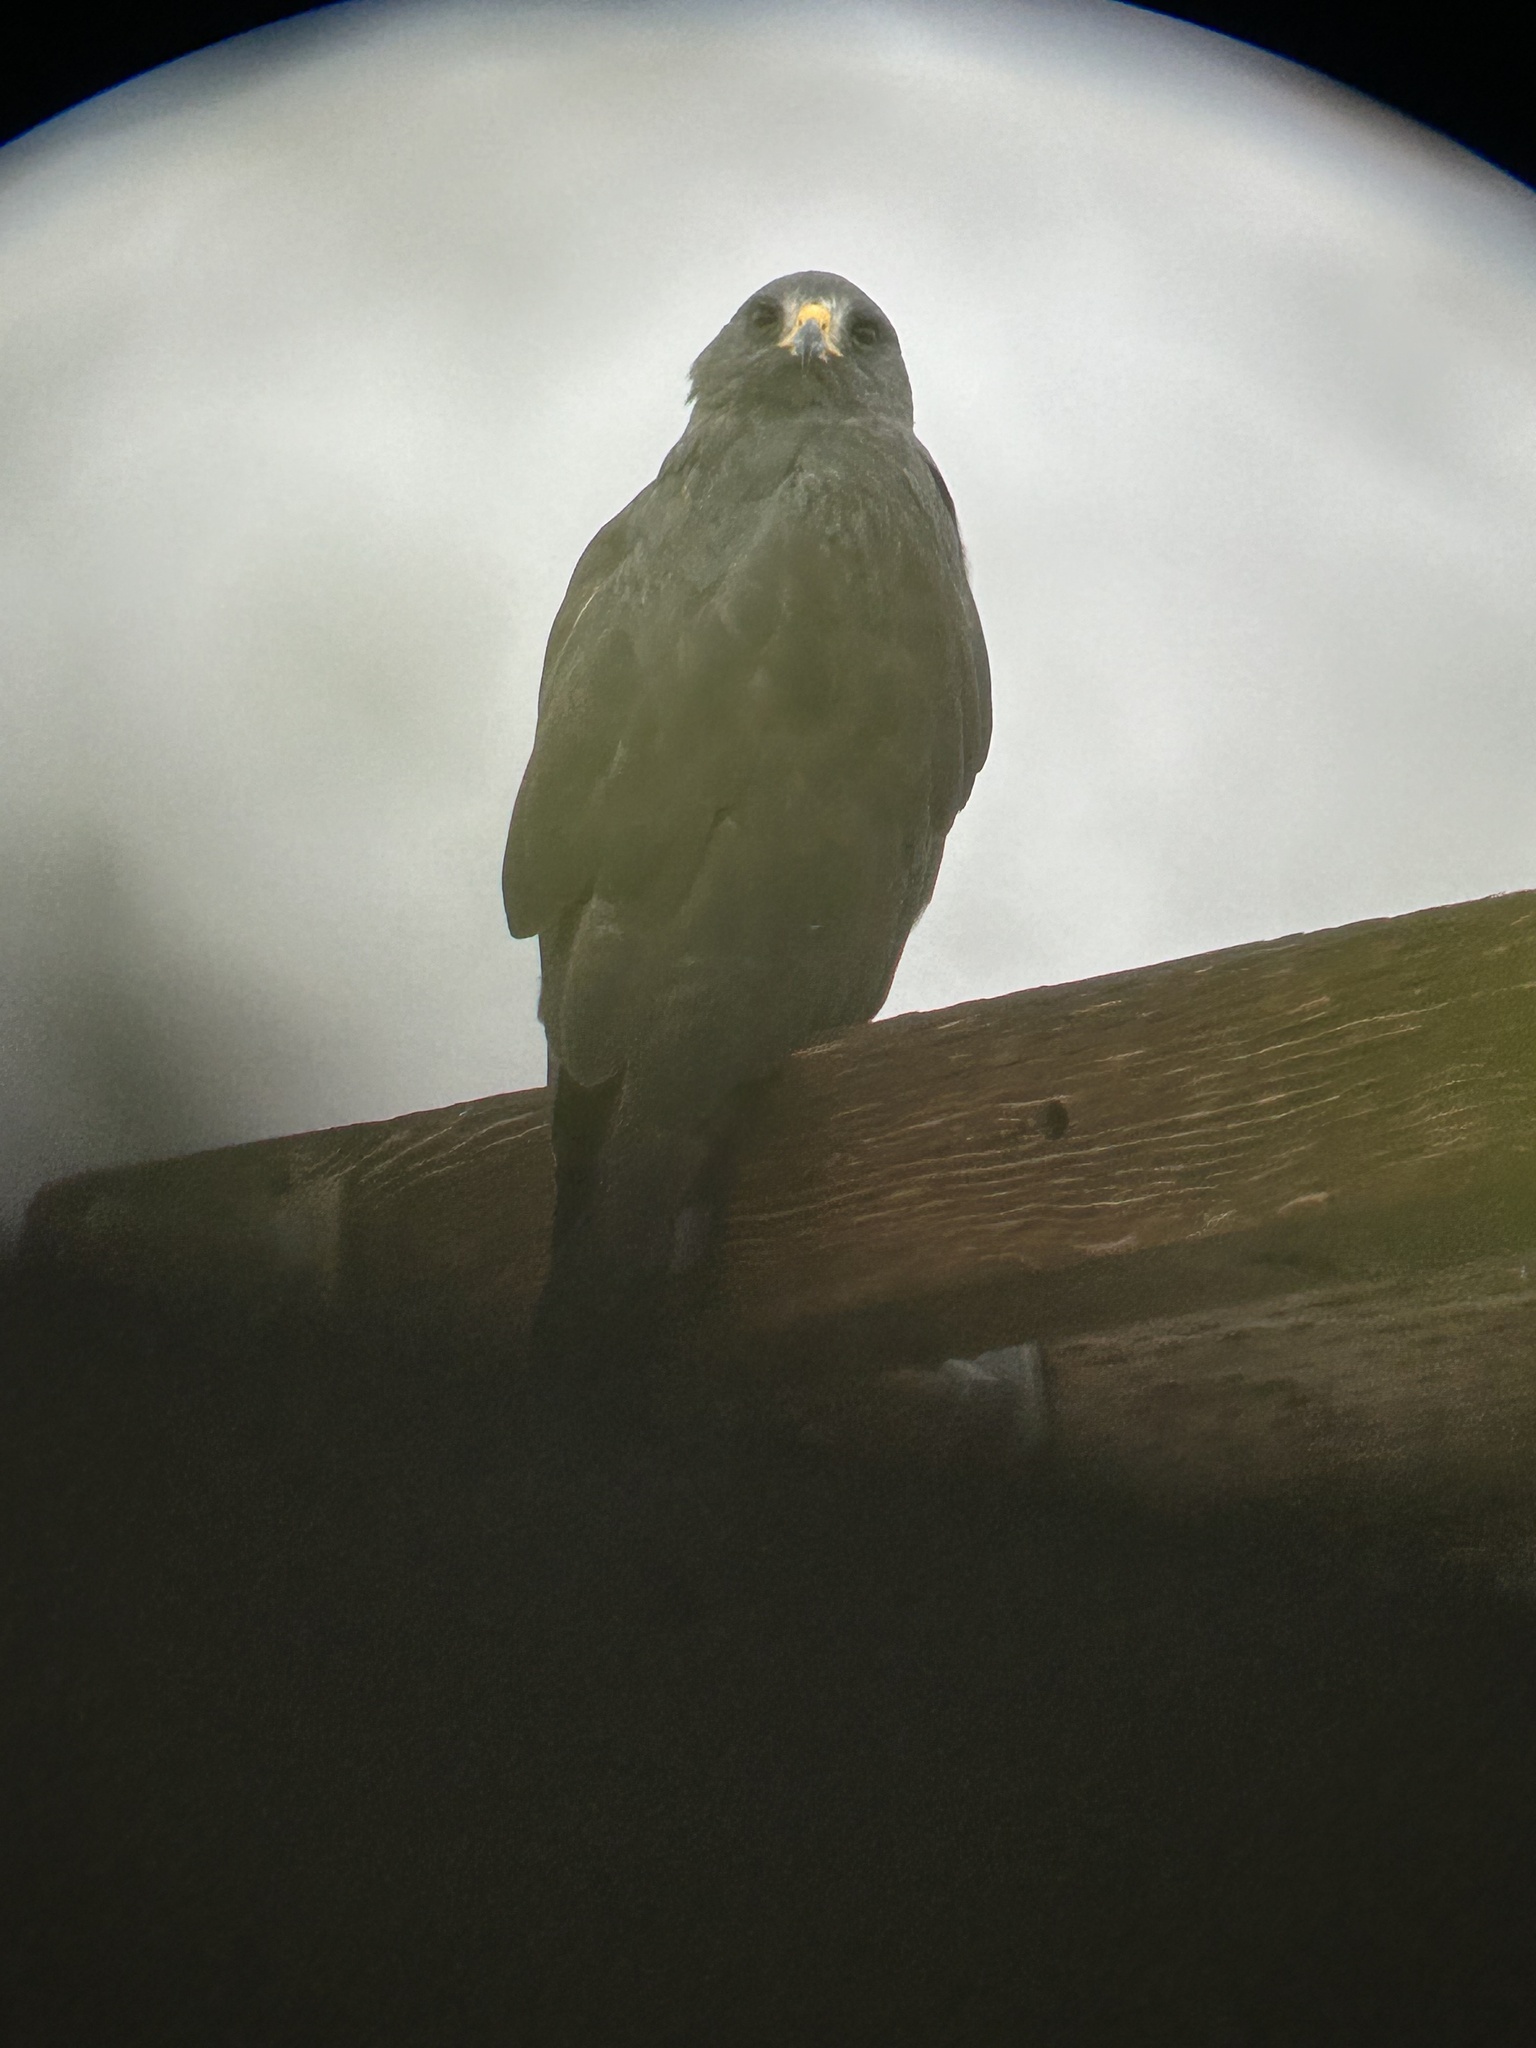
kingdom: Animalia
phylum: Chordata
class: Aves
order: Accipitriformes
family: Accipitridae
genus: Buteo
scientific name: Buteo albonotatus
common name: Zone-tailed hawk
